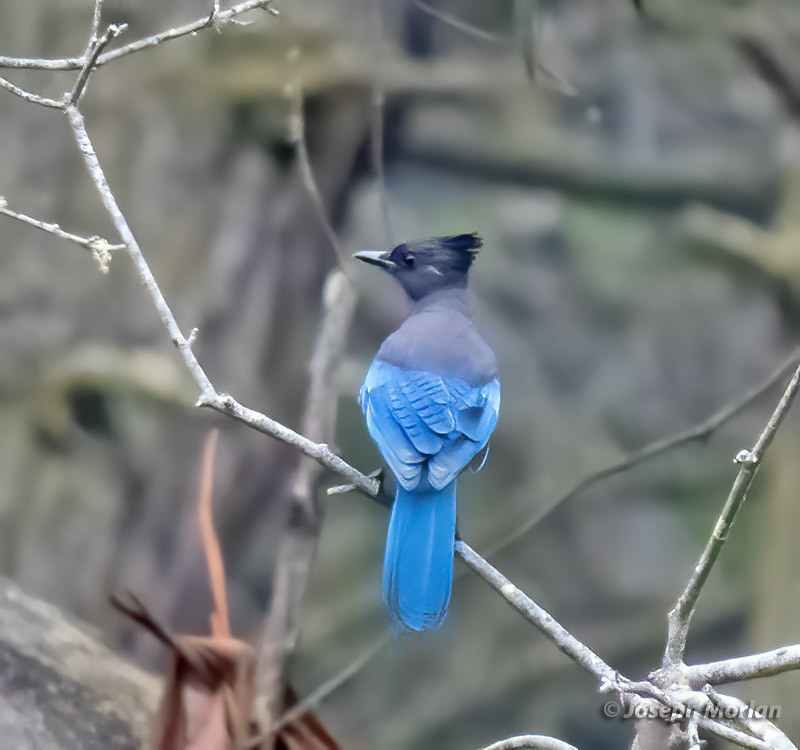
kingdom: Animalia
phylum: Chordata
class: Aves
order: Passeriformes
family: Corvidae
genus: Cyanocitta
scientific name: Cyanocitta stelleri
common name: Steller's jay
